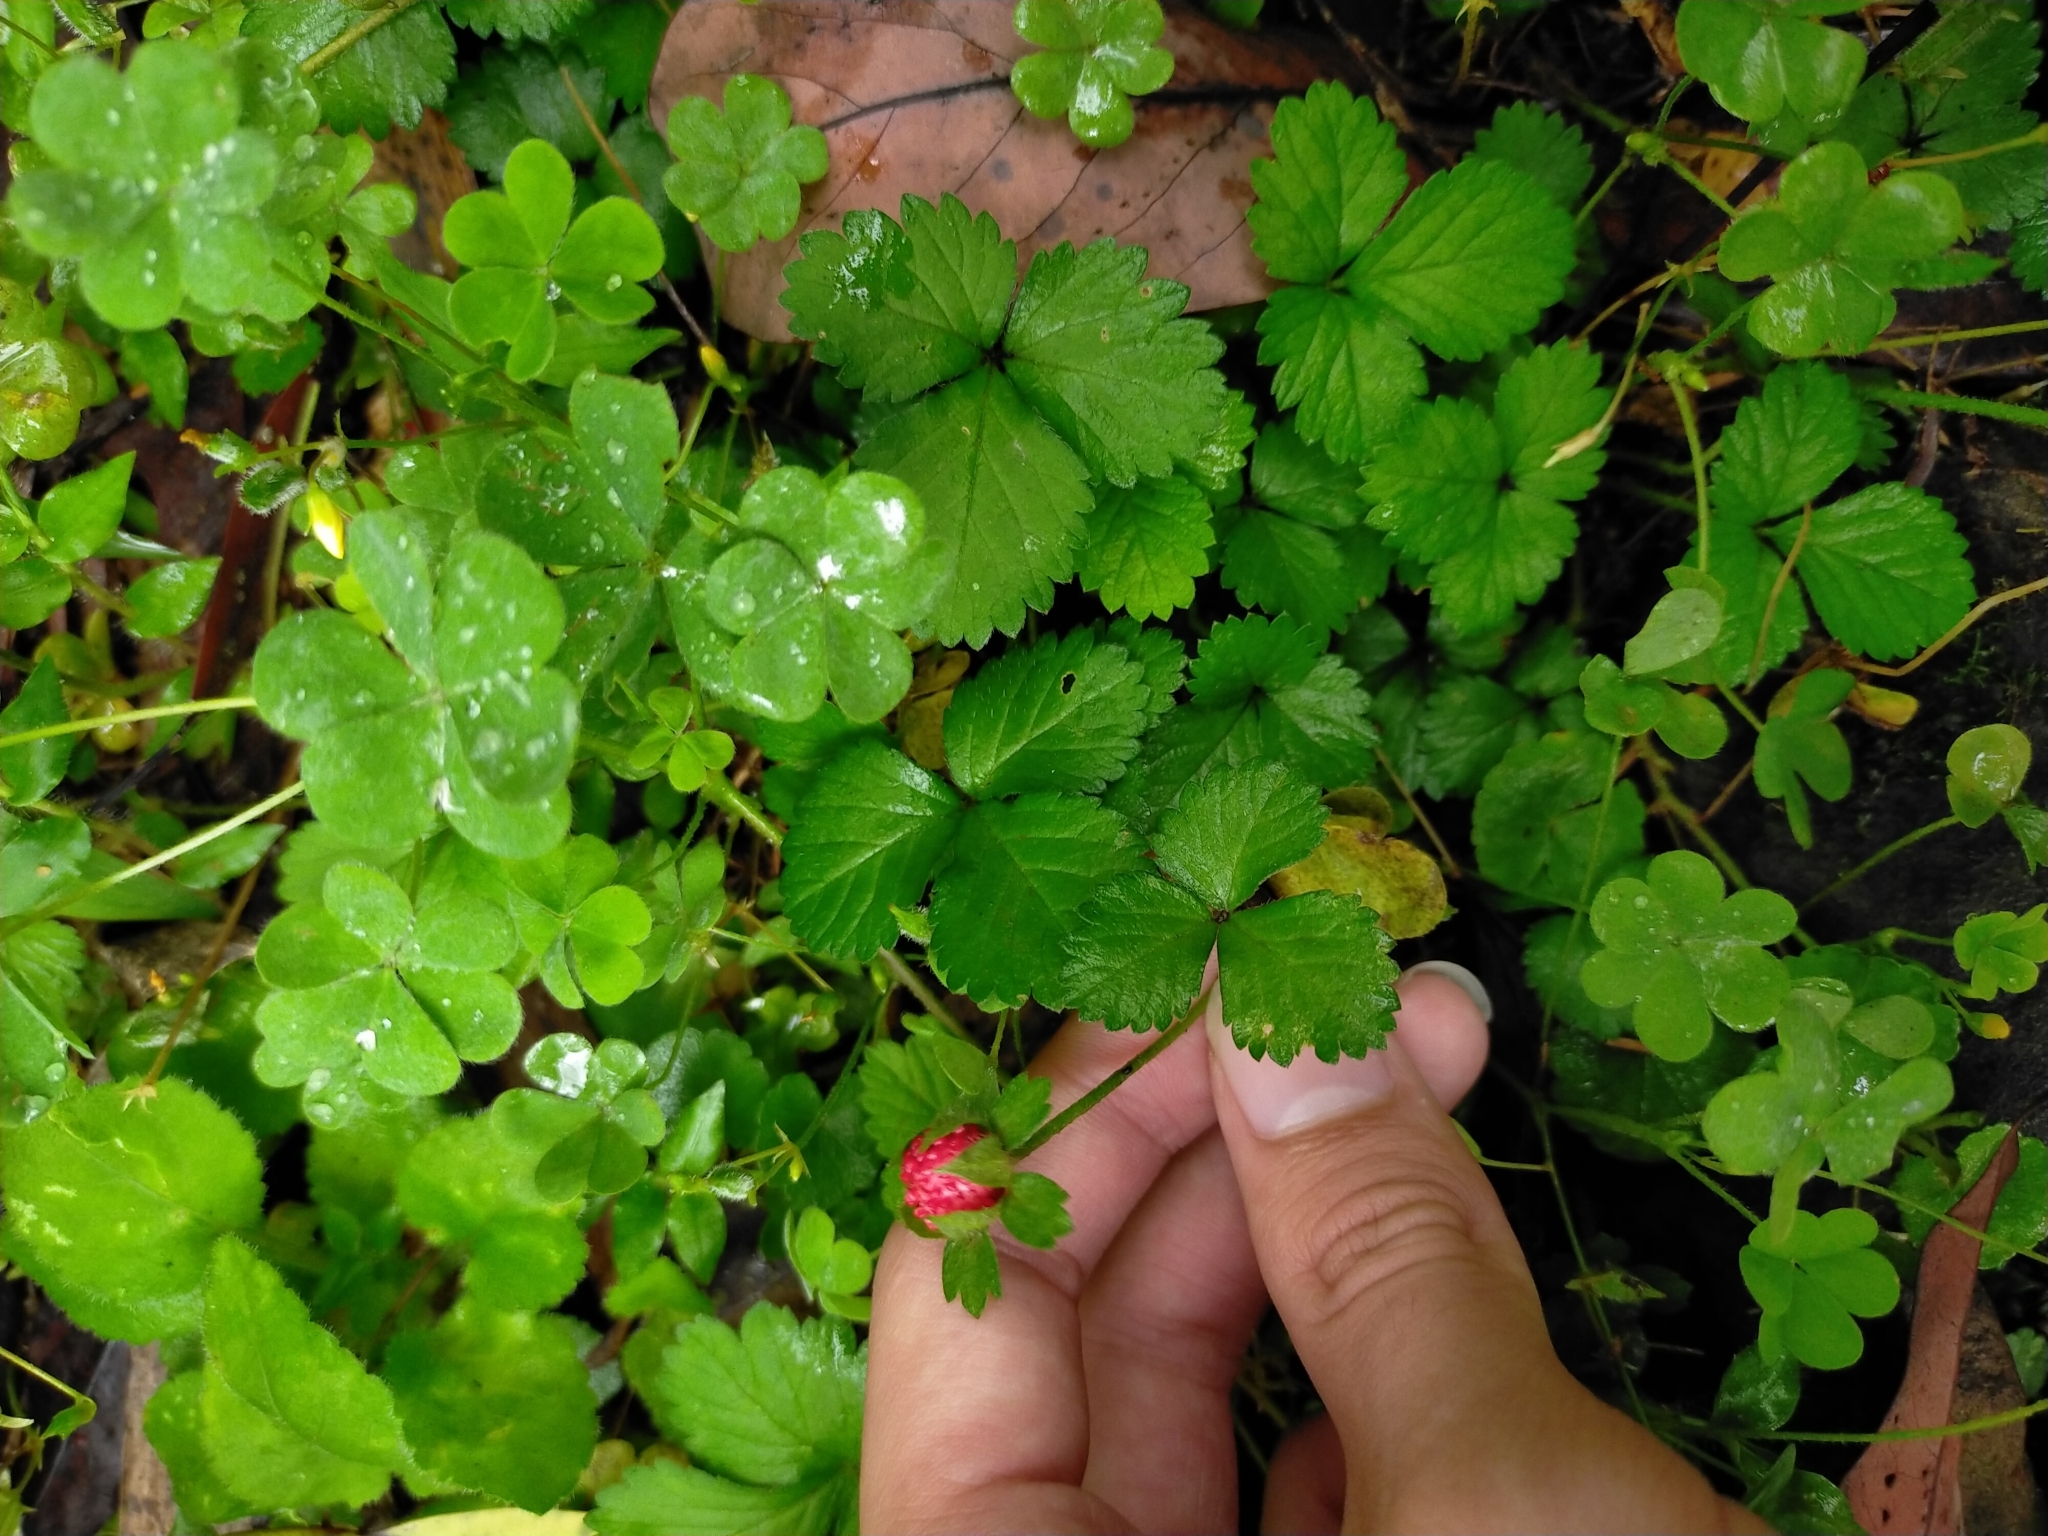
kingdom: Plantae
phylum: Tracheophyta
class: Magnoliopsida
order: Rosales
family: Rosaceae
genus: Potentilla
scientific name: Potentilla indica
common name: Yellow-flowered strawberry
